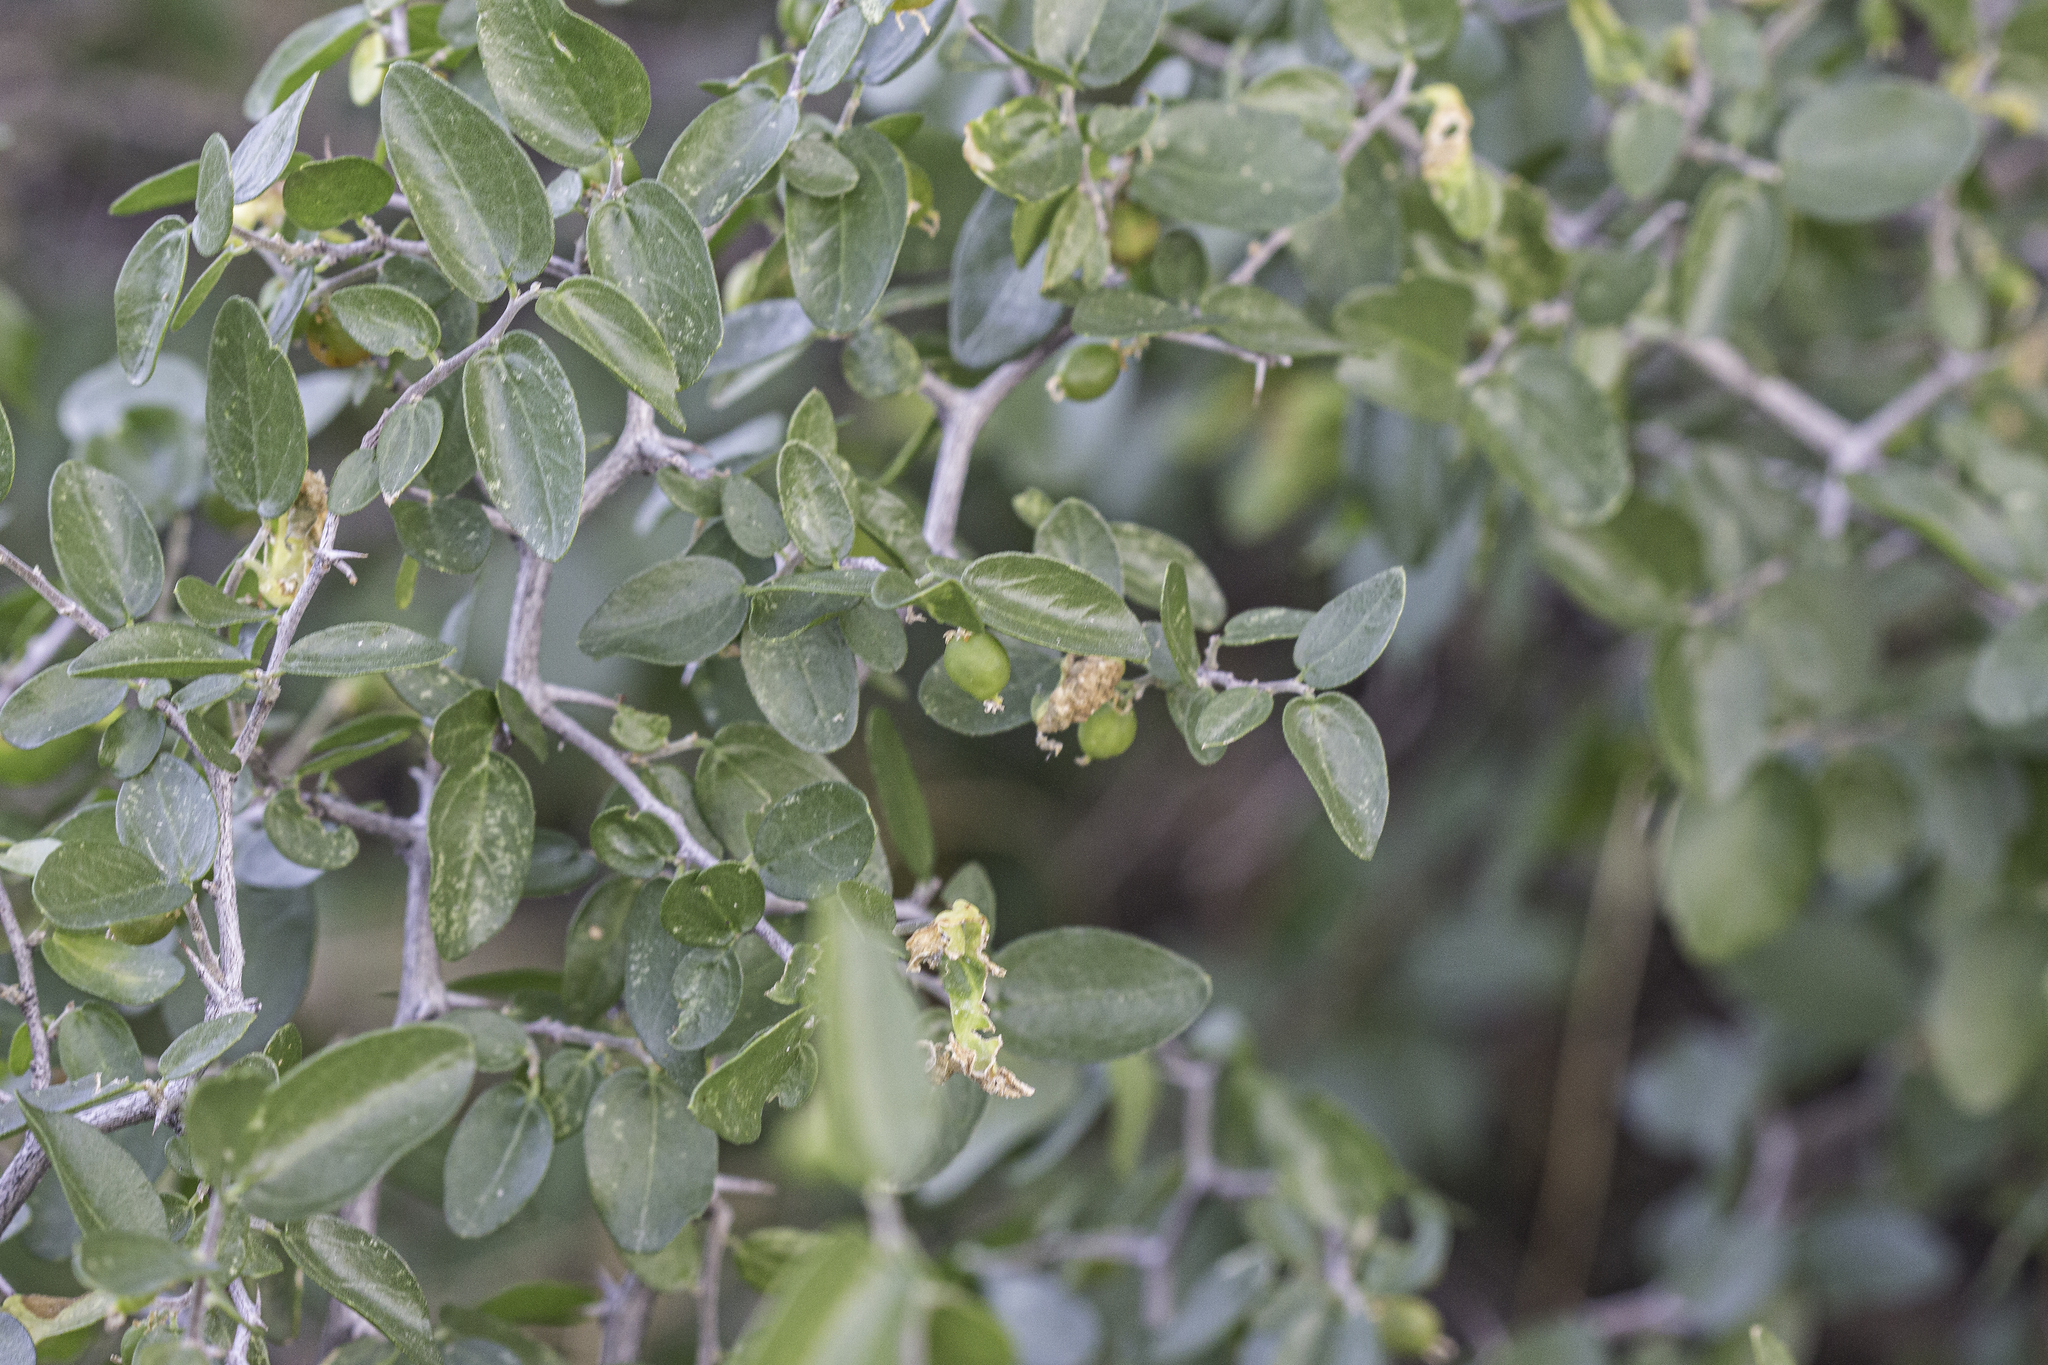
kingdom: Plantae
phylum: Tracheophyta
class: Magnoliopsida
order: Rosales
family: Cannabaceae
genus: Celtis
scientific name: Celtis pallida
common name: Desert hackberry
